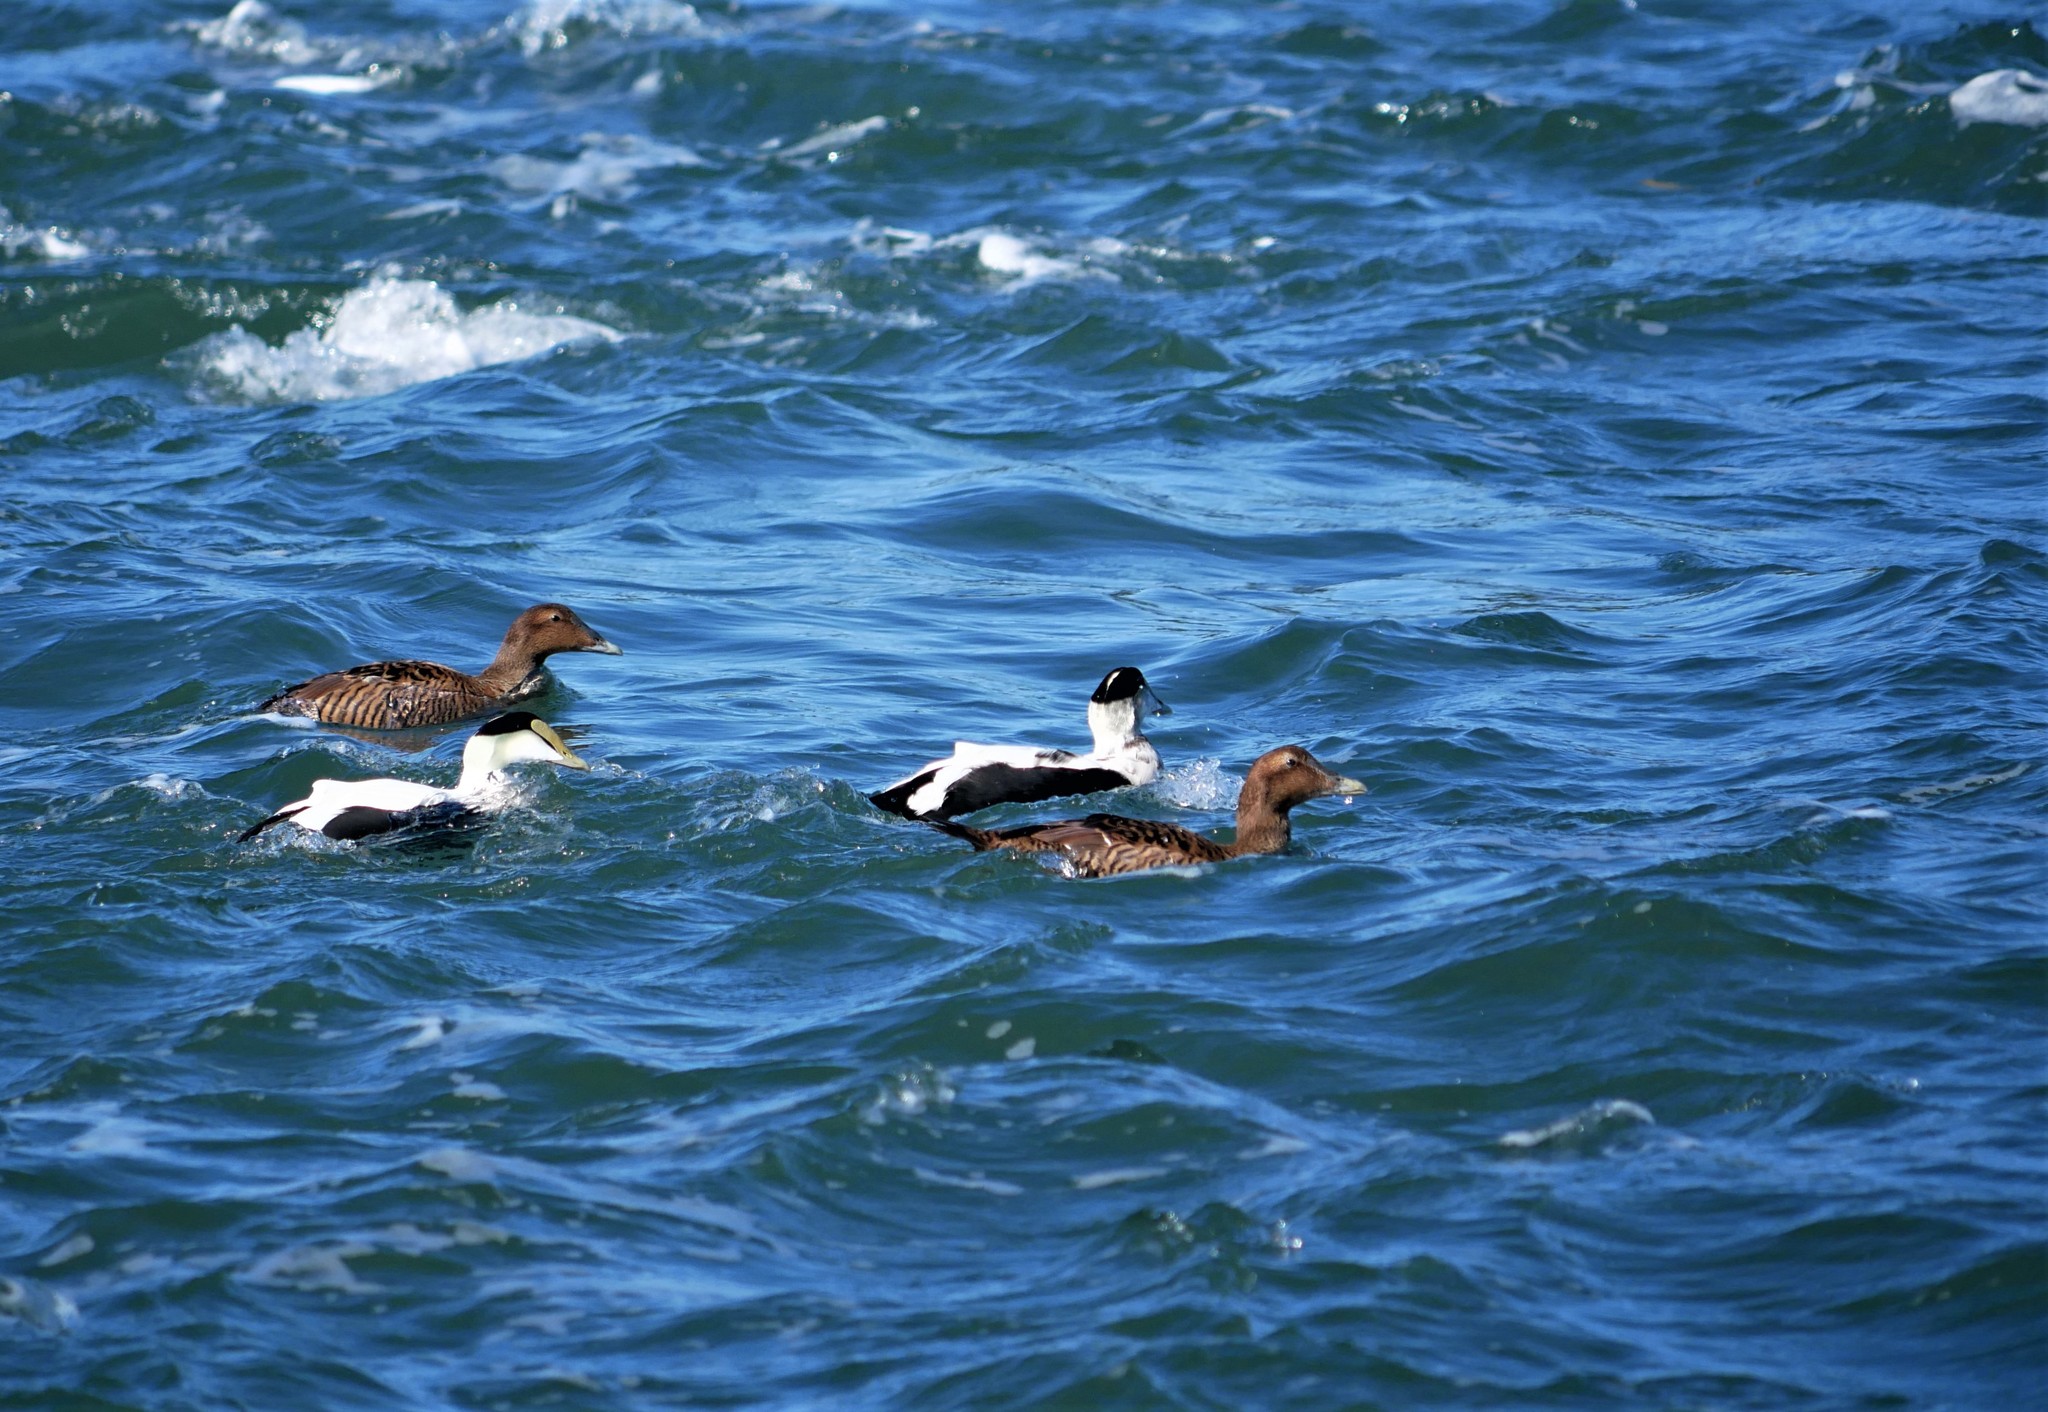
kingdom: Animalia
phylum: Chordata
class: Aves
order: Anseriformes
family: Anatidae
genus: Somateria
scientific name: Somateria mollissima
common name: Common eider
